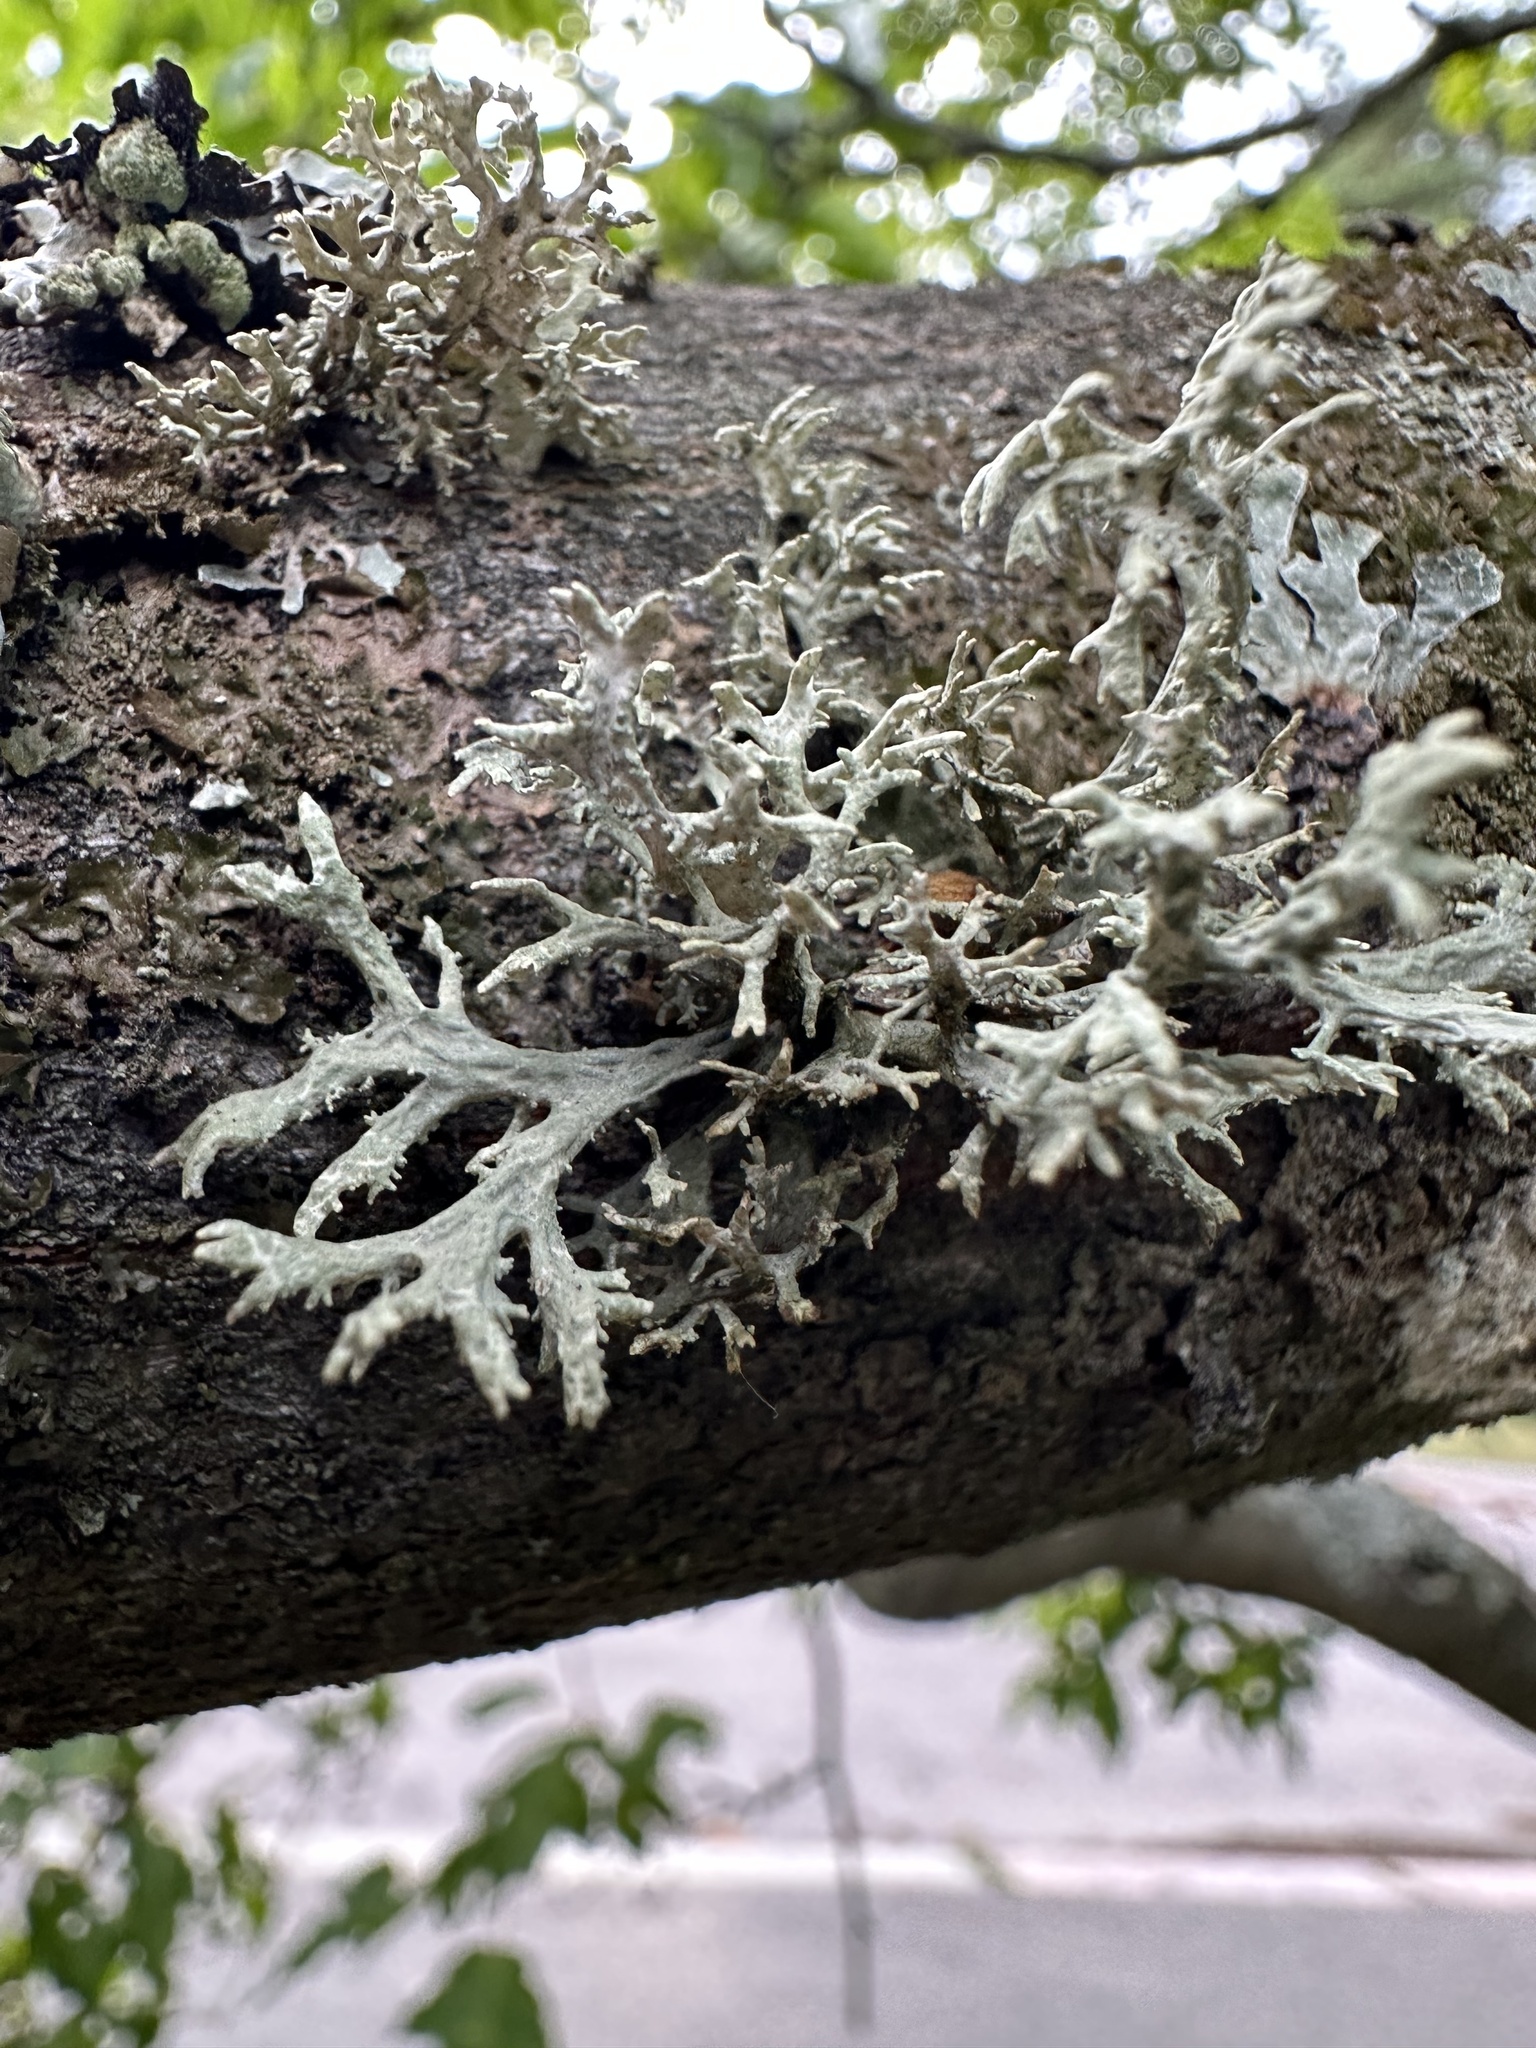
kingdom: Fungi
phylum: Ascomycota
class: Lecanoromycetes
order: Lecanorales
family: Parmeliaceae
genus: Evernia
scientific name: Evernia prunastri
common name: Oak moss
